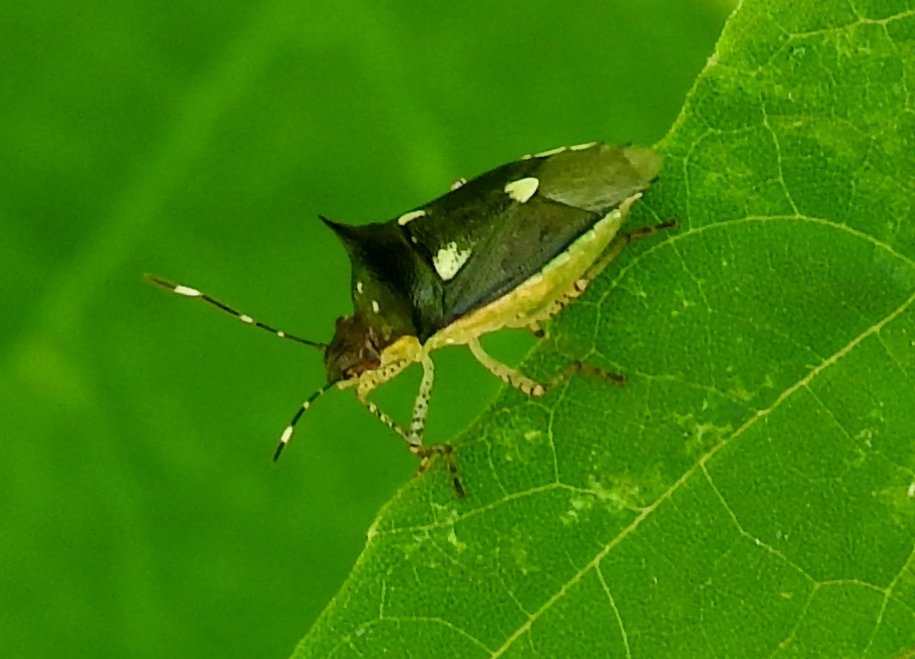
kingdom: Animalia
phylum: Arthropoda
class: Insecta
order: Hemiptera
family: Pentatomidae
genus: Mormidea
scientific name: Mormidea lunara
